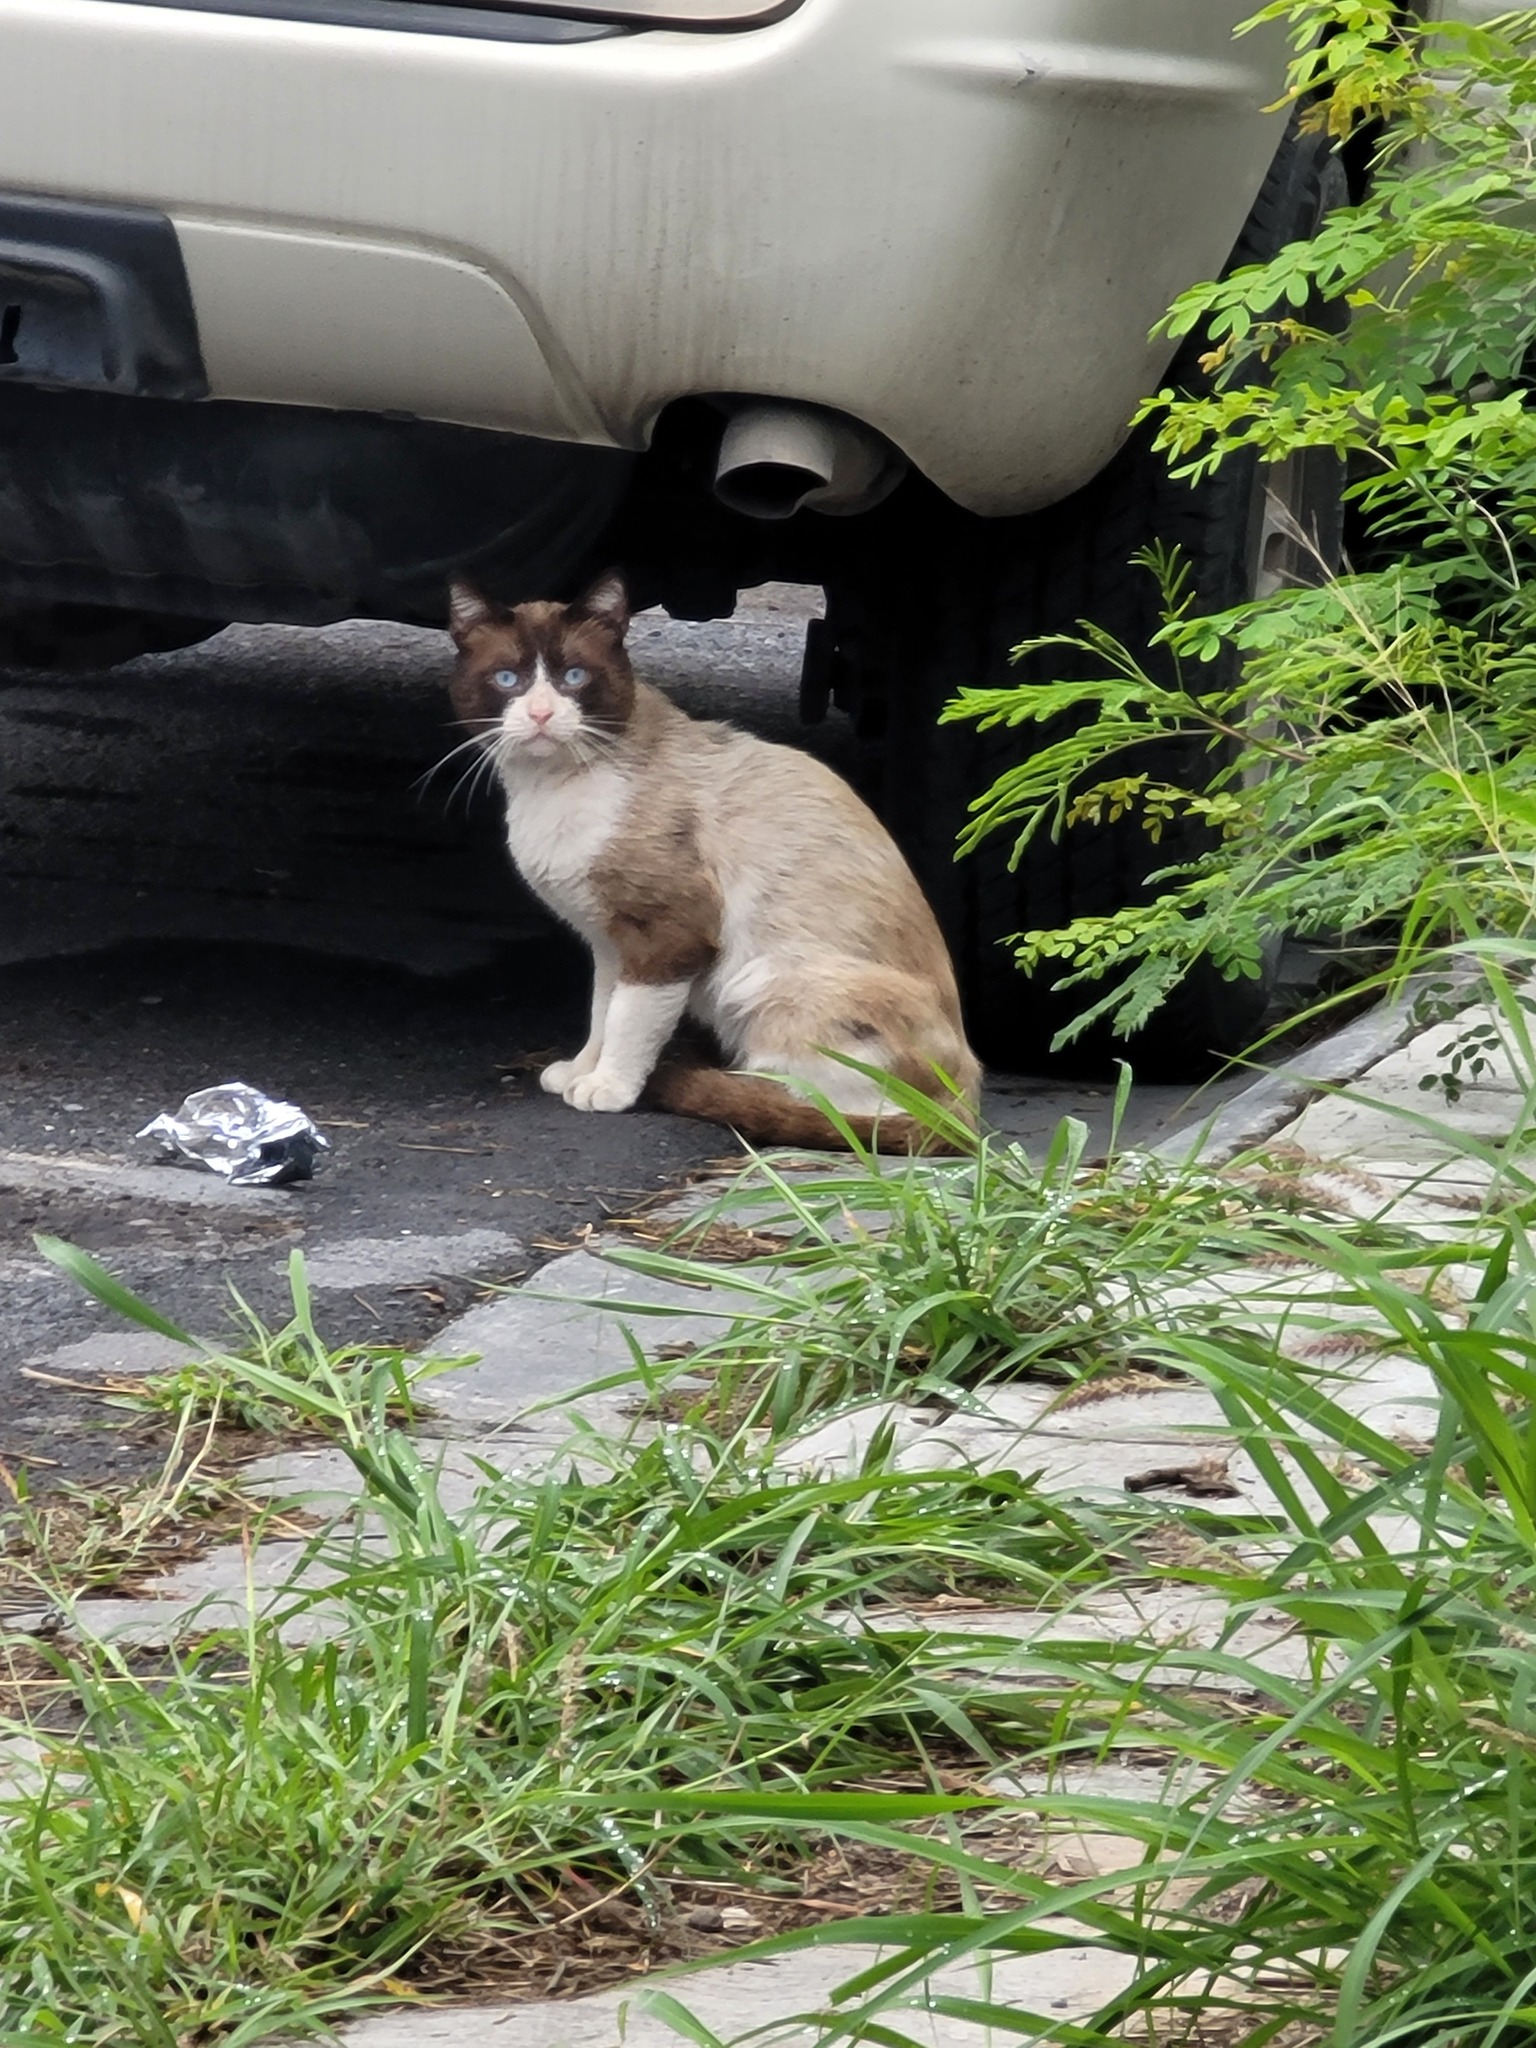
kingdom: Animalia
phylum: Chordata
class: Mammalia
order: Carnivora
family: Felidae
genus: Felis
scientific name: Felis catus
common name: Domestic cat
